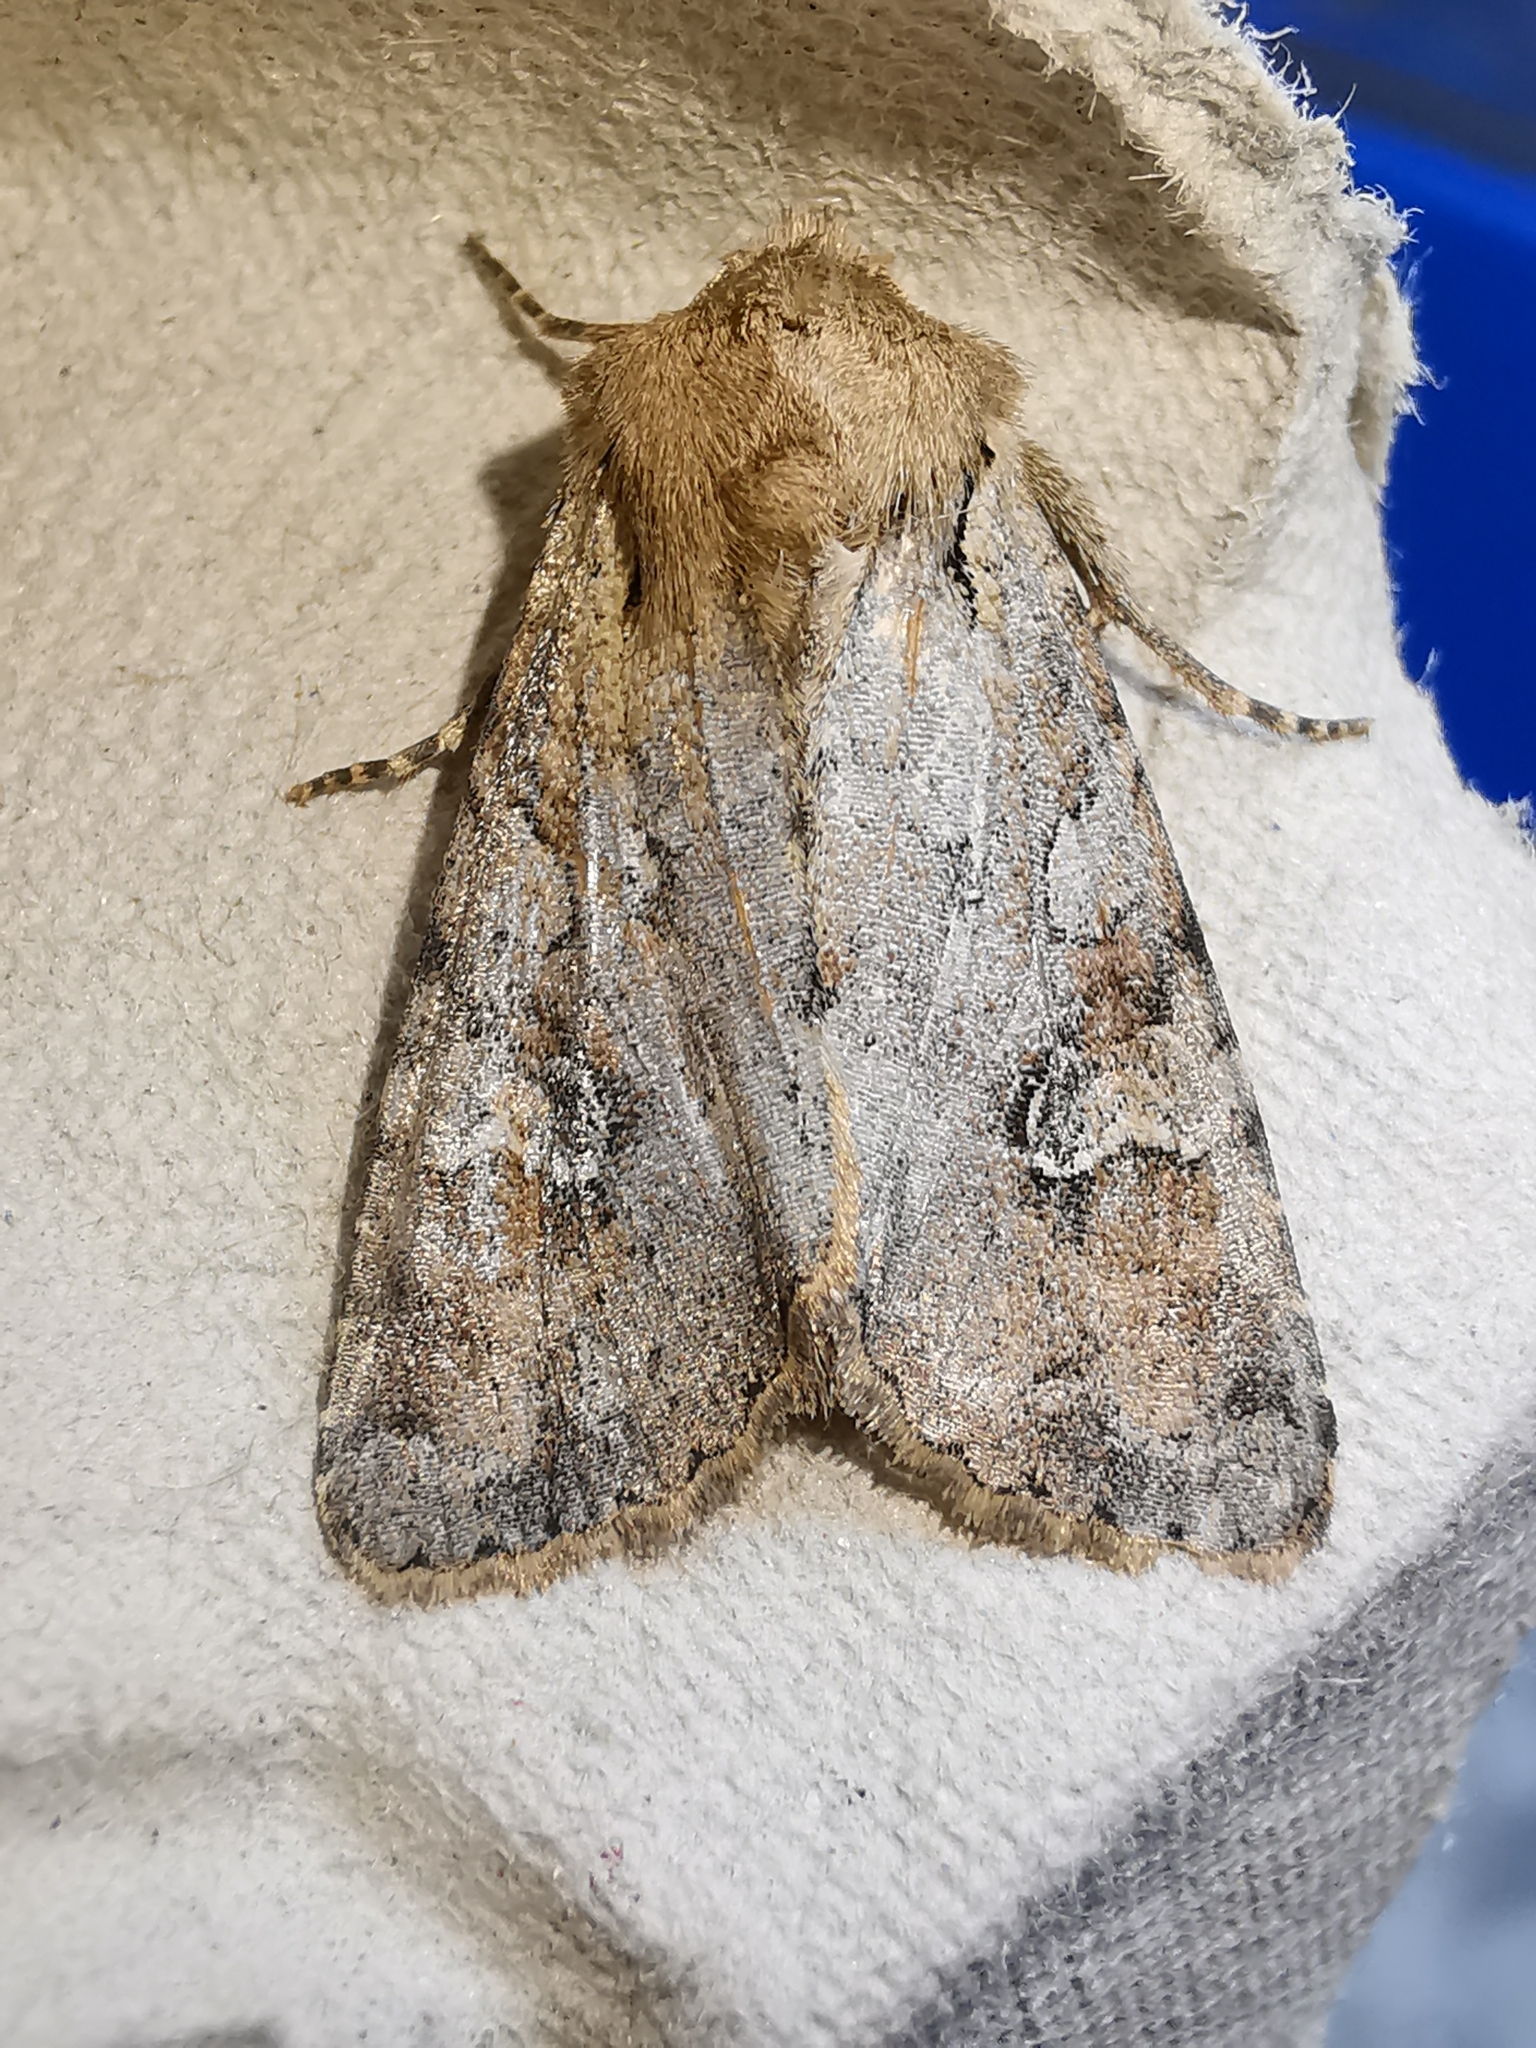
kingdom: Animalia
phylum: Arthropoda
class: Insecta
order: Lepidoptera
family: Noctuidae
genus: Apamea
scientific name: Apamea sordens
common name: Rustic shoulder-knot
